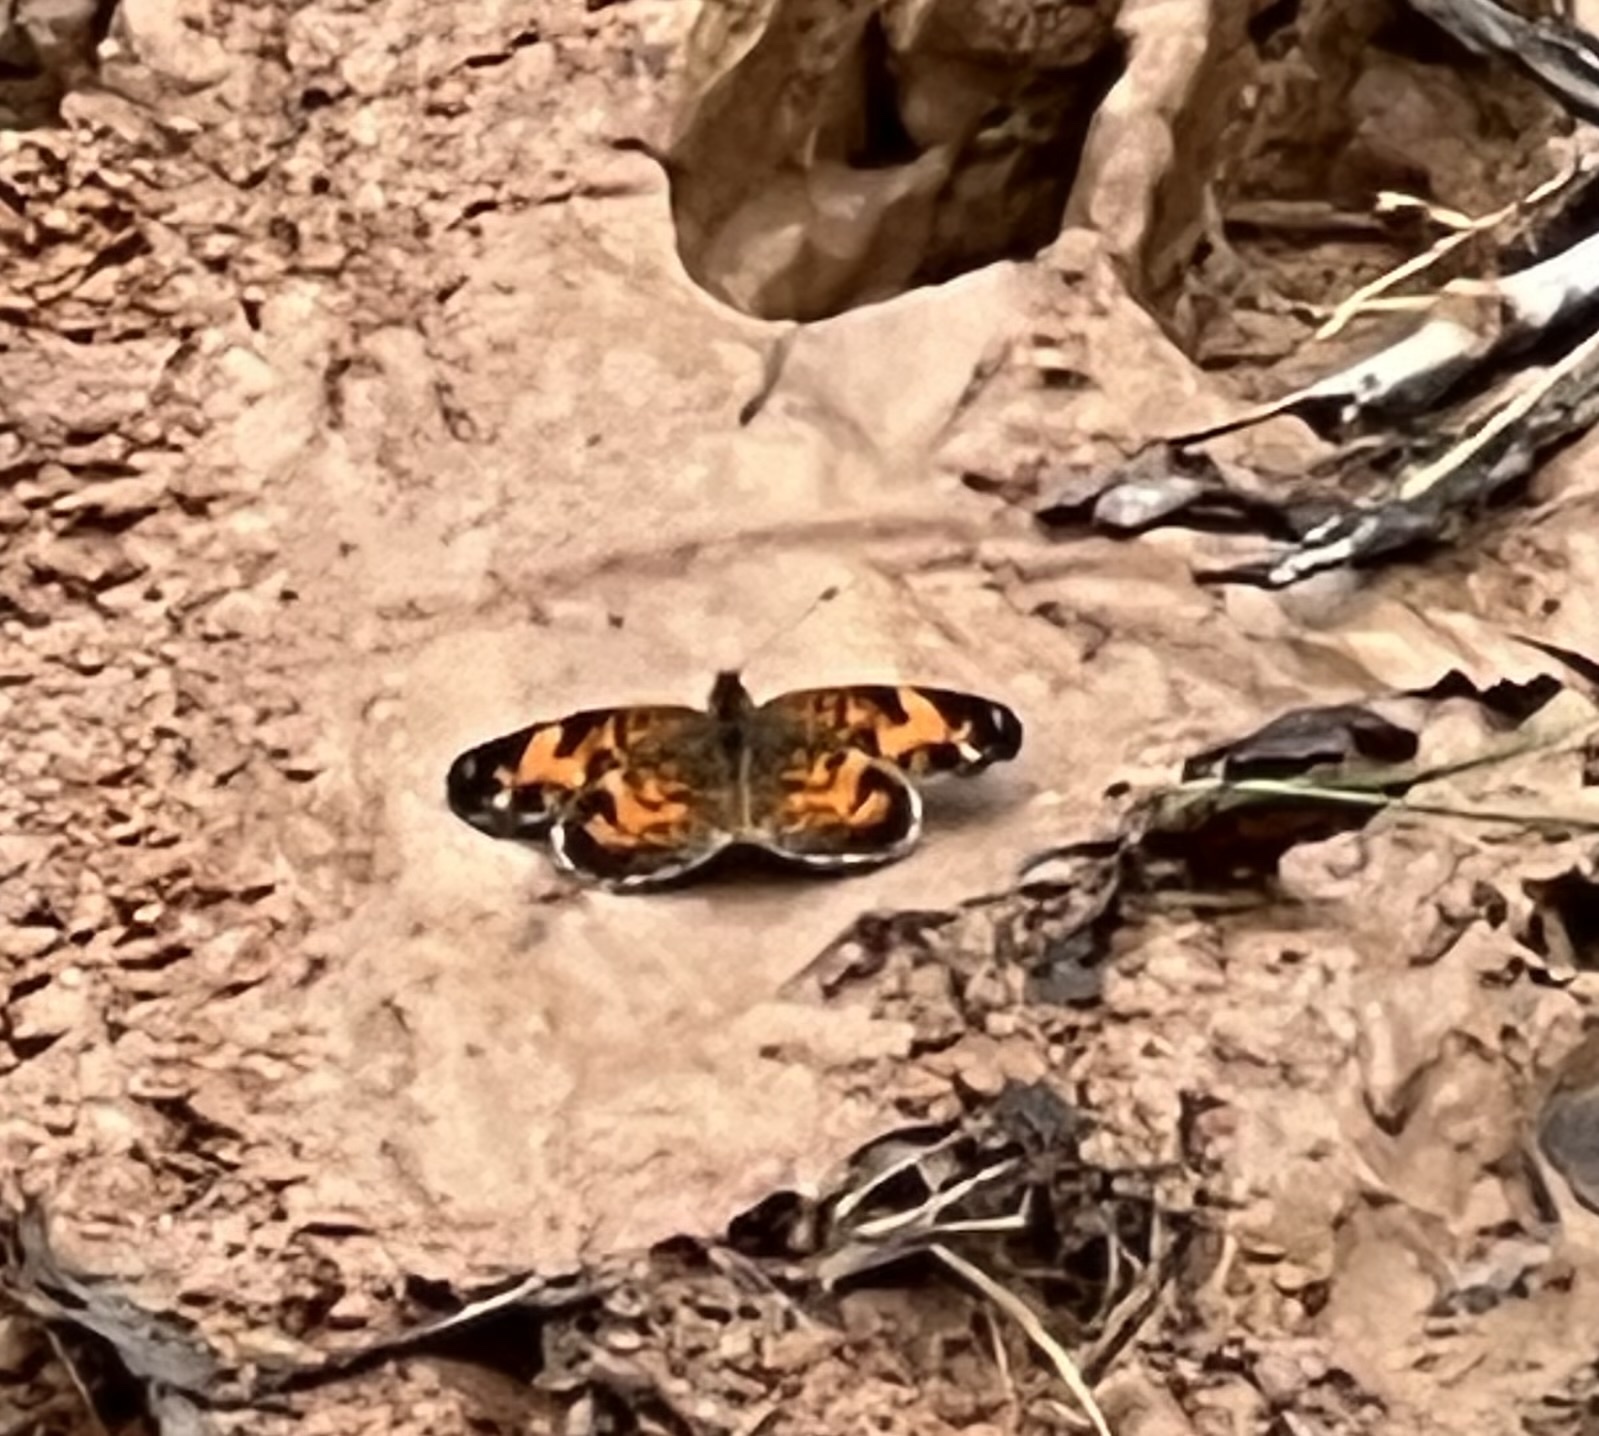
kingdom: Animalia
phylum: Arthropoda
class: Insecta
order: Lepidoptera
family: Nymphalidae
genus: Phyciodes
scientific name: Phyciodes tharos
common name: Pearl crescent
